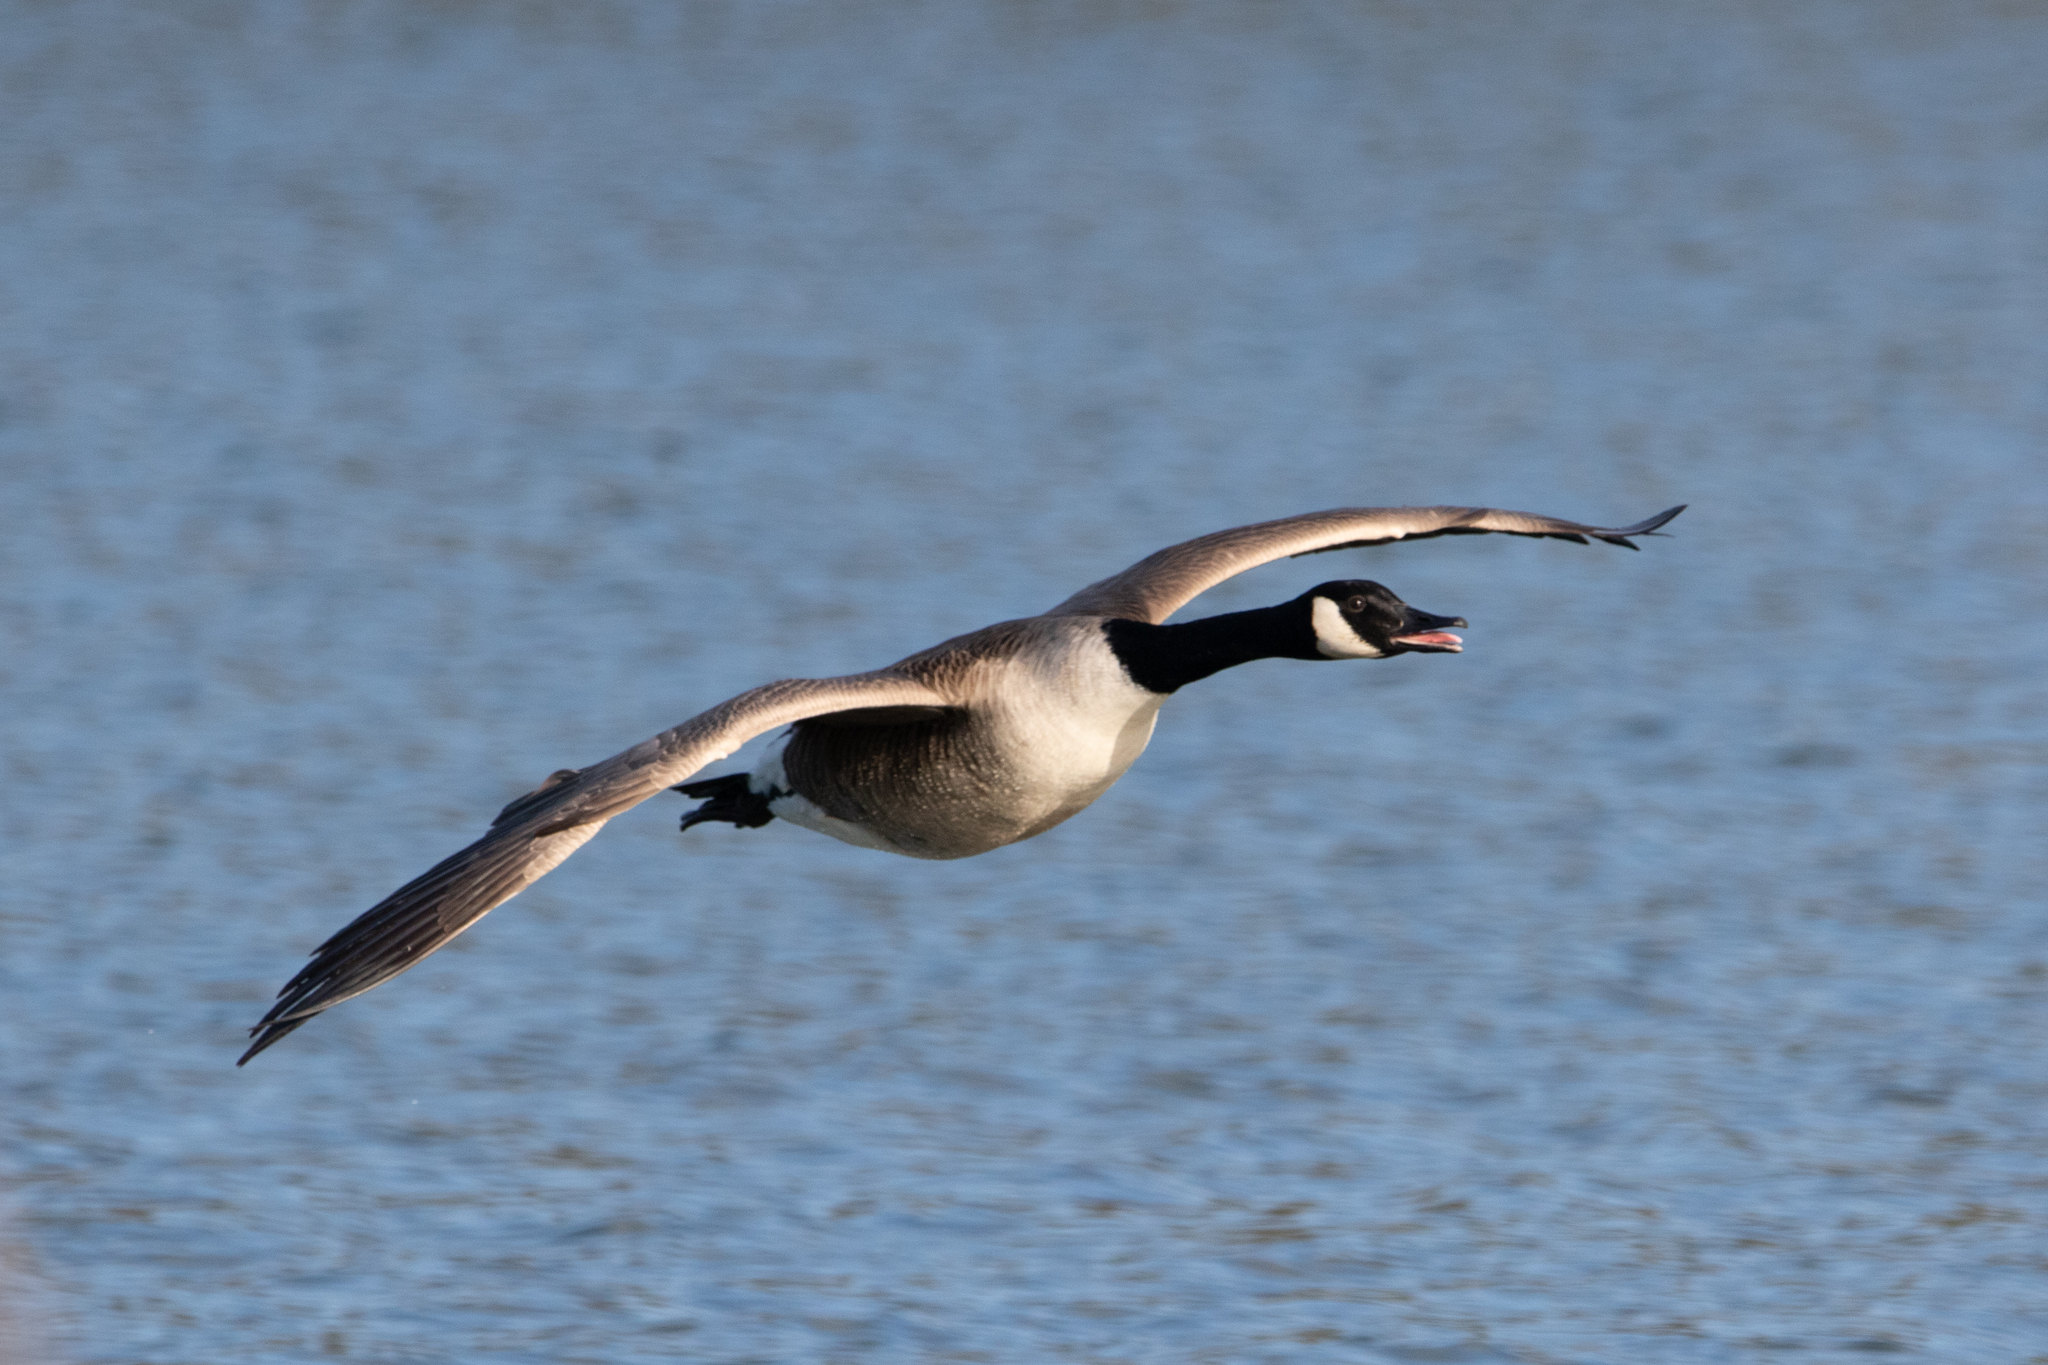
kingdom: Animalia
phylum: Chordata
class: Aves
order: Anseriformes
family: Anatidae
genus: Branta
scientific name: Branta canadensis
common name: Canada goose
